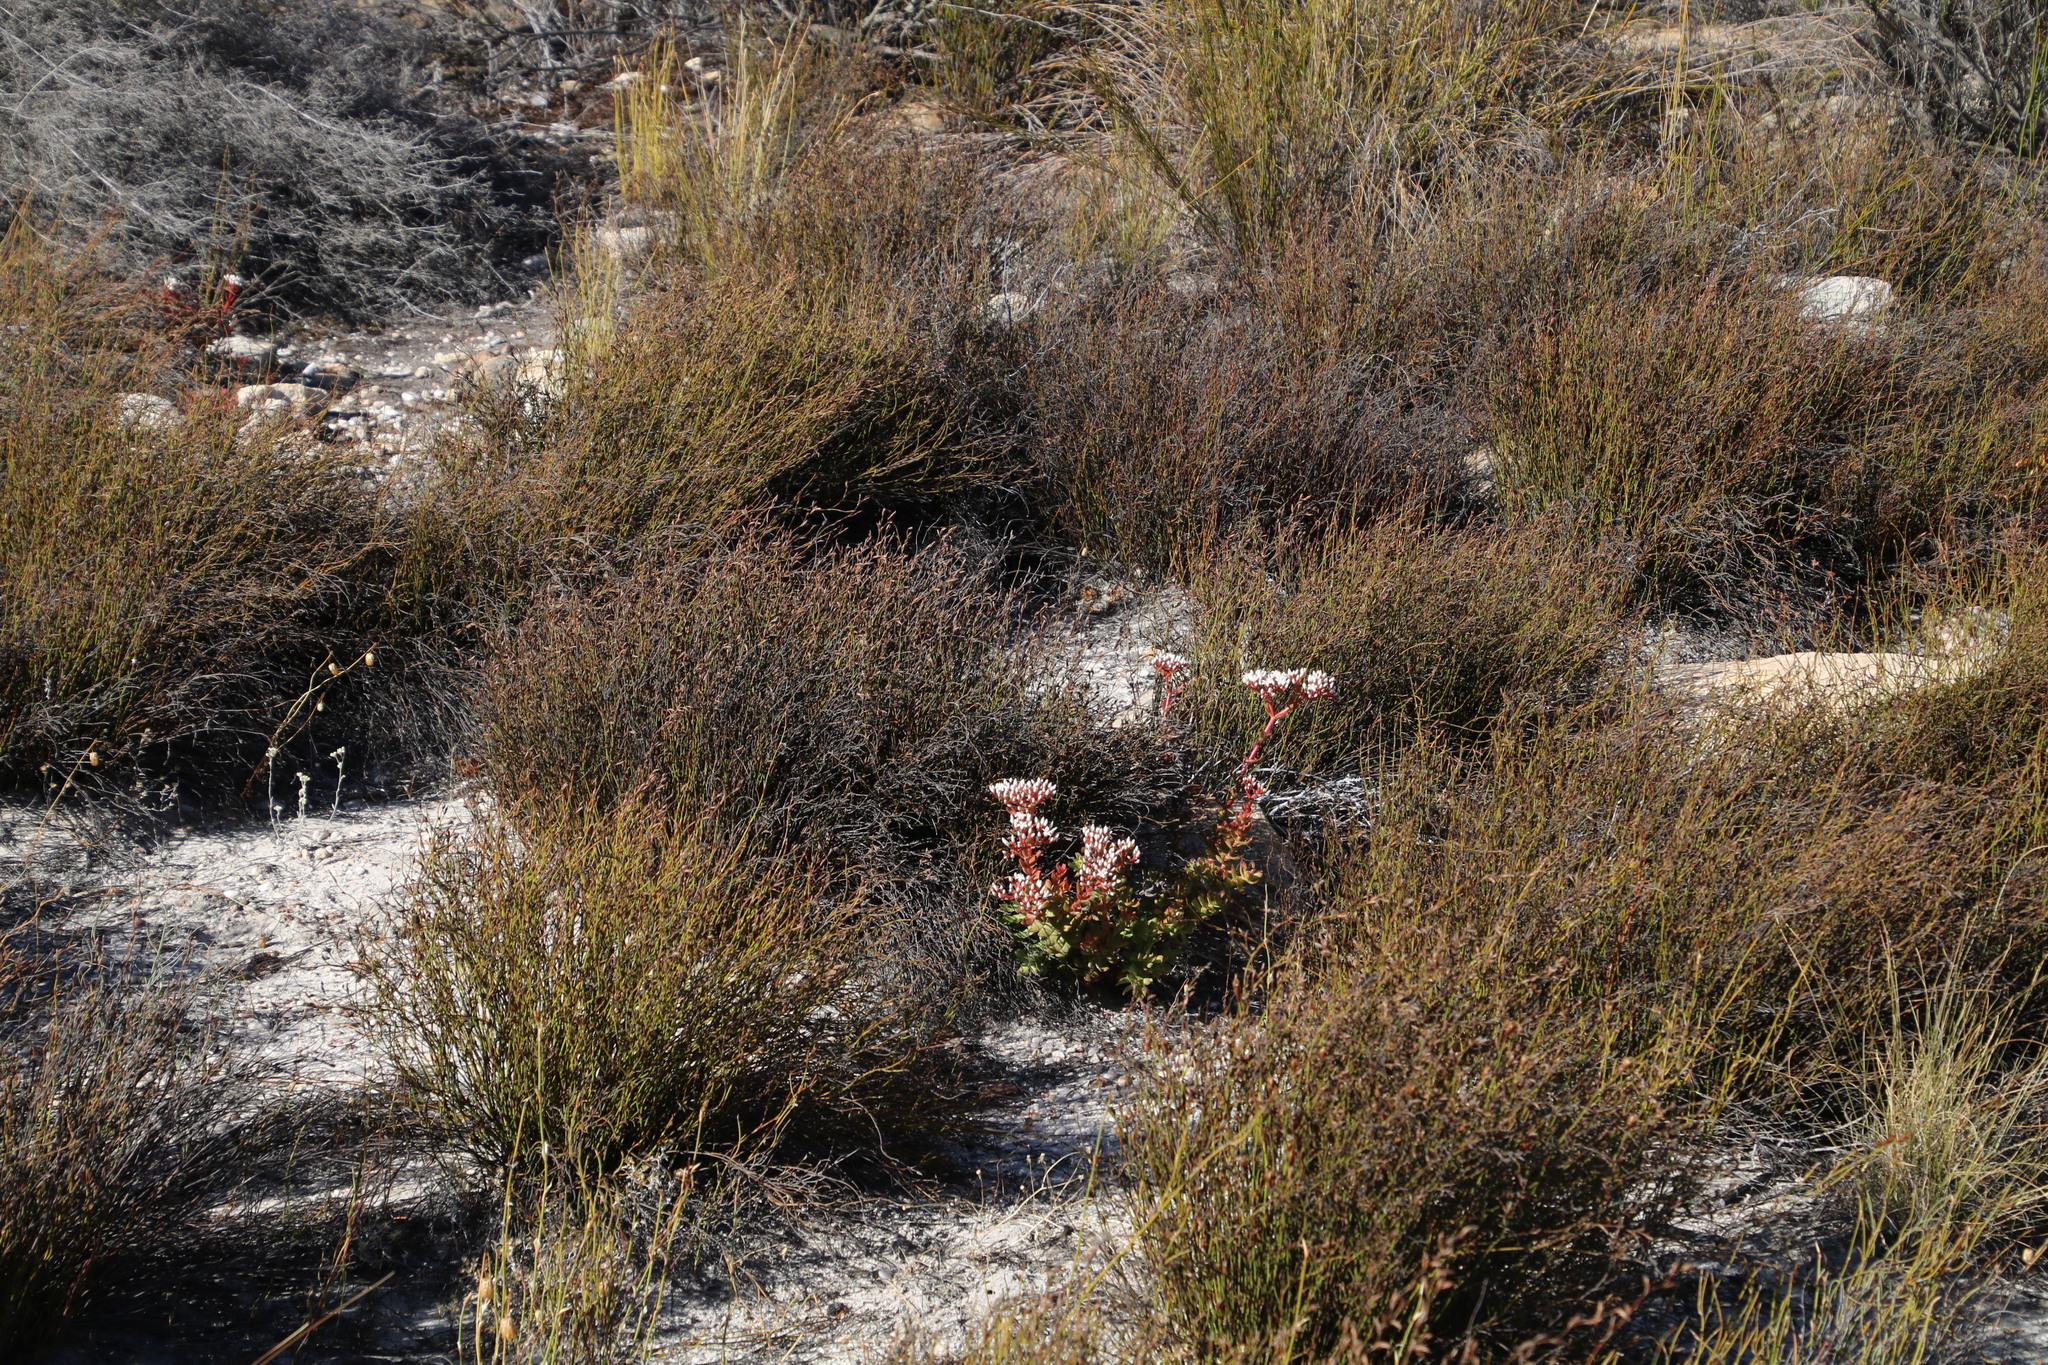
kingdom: Plantae
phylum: Tracheophyta
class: Magnoliopsida
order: Saxifragales
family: Crassulaceae
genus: Crassula
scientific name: Crassula undulata
